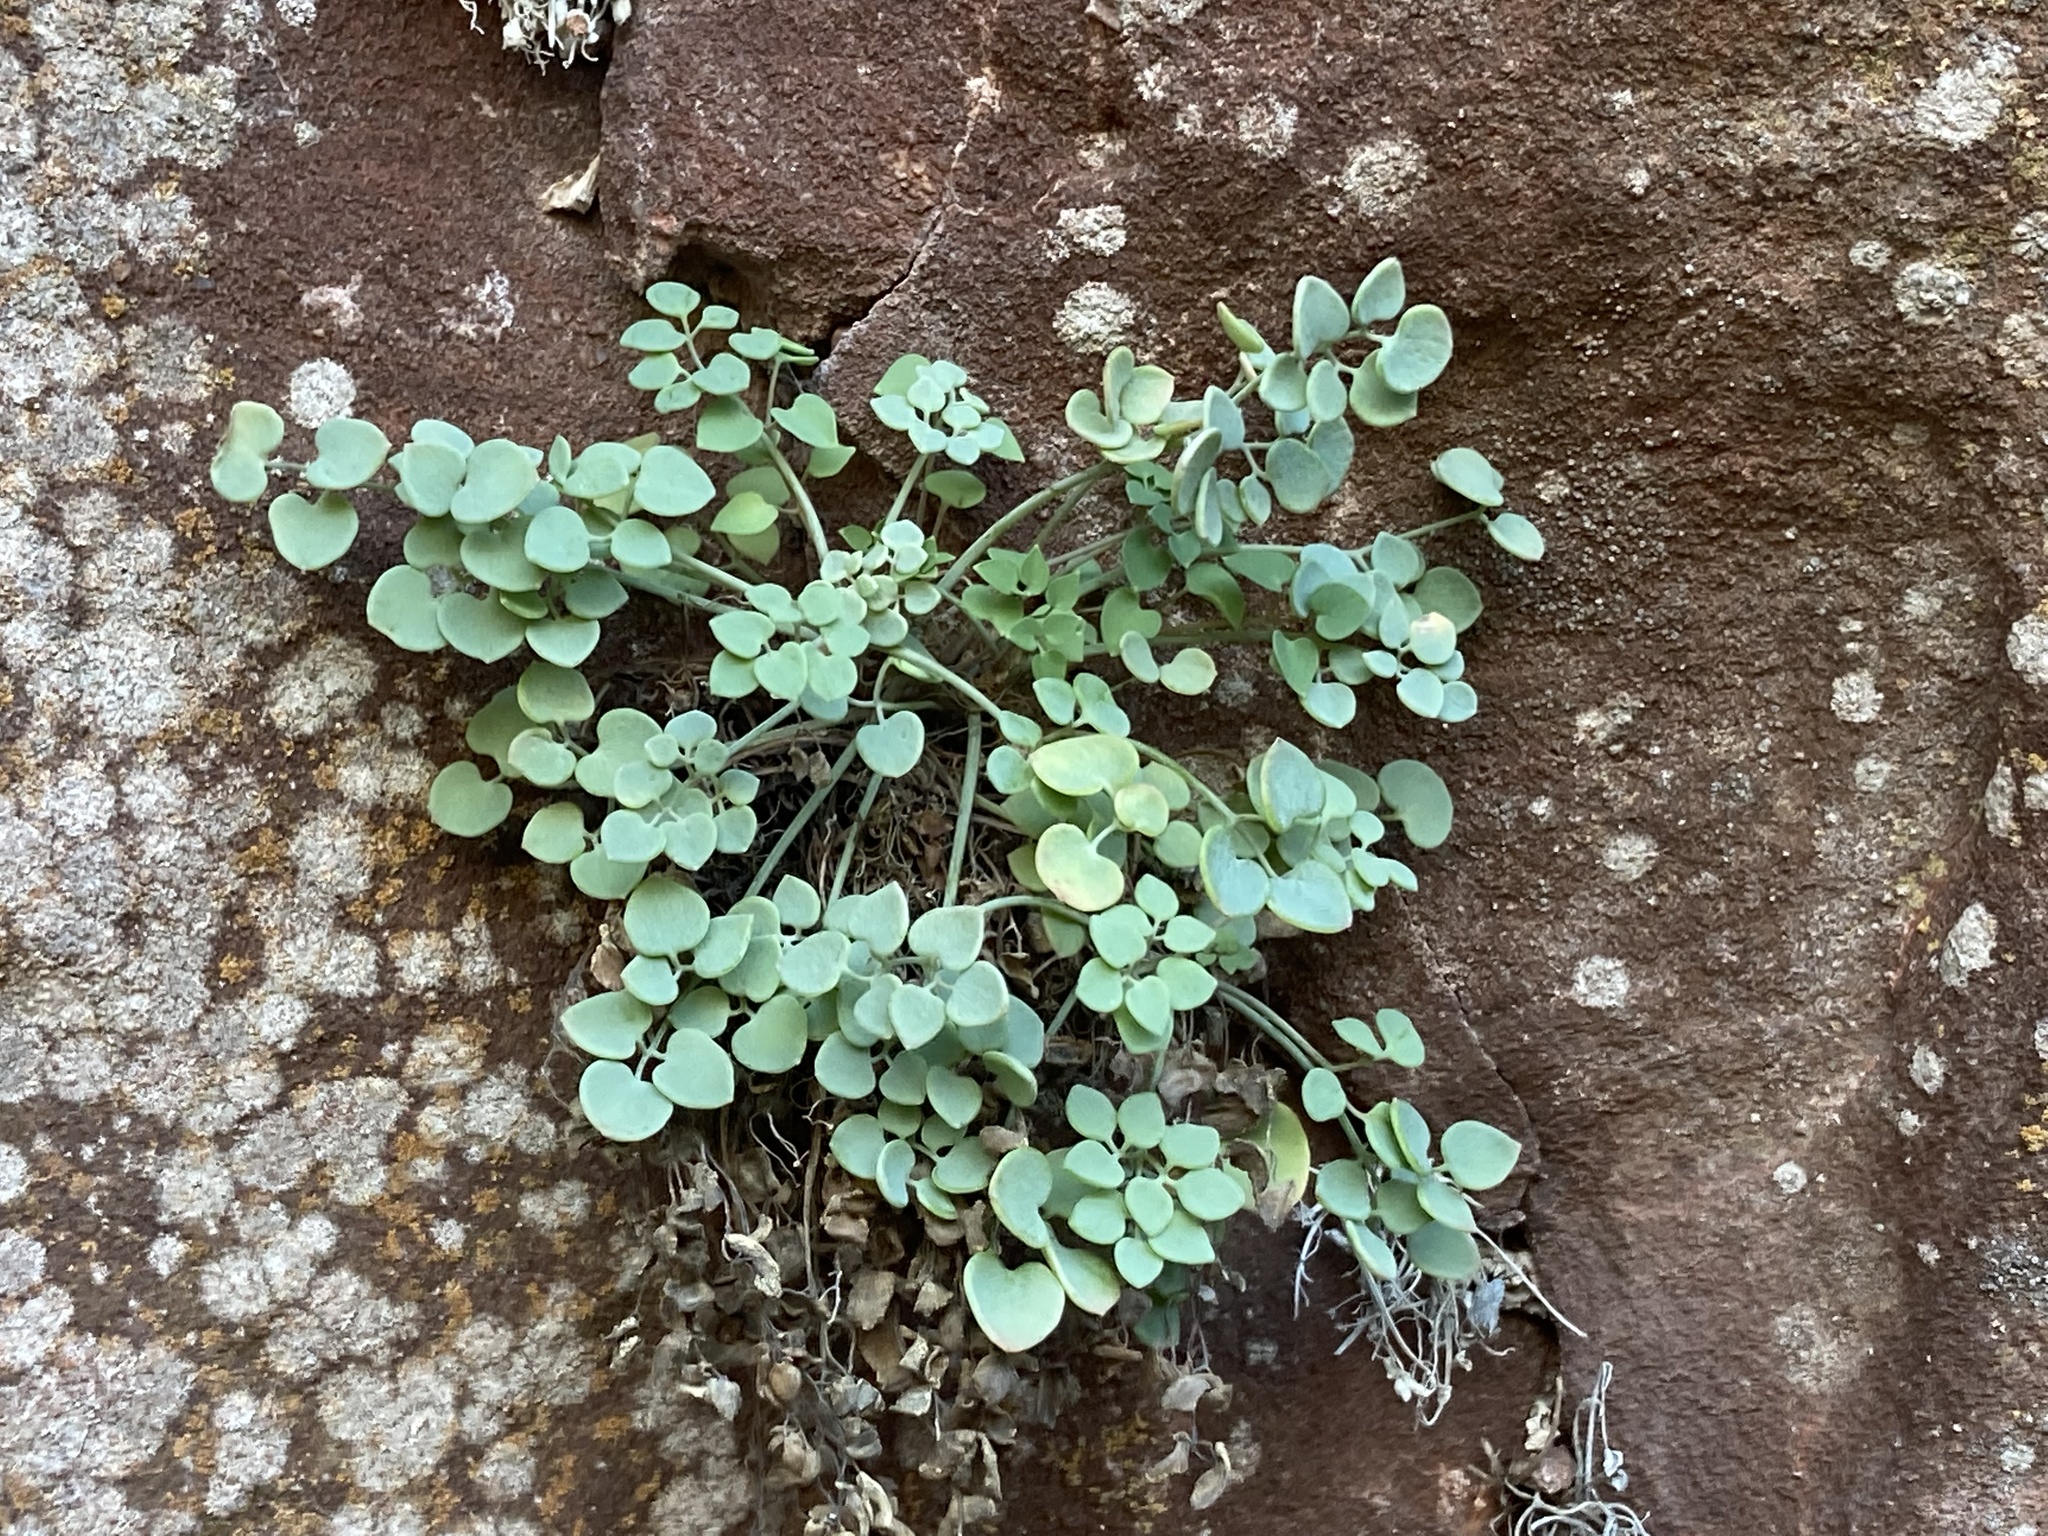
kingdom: Plantae
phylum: Tracheophyta
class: Magnoliopsida
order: Ranunculales
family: Papaveraceae
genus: Sarcocapnos
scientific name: Sarcocapnos enneaphylla
